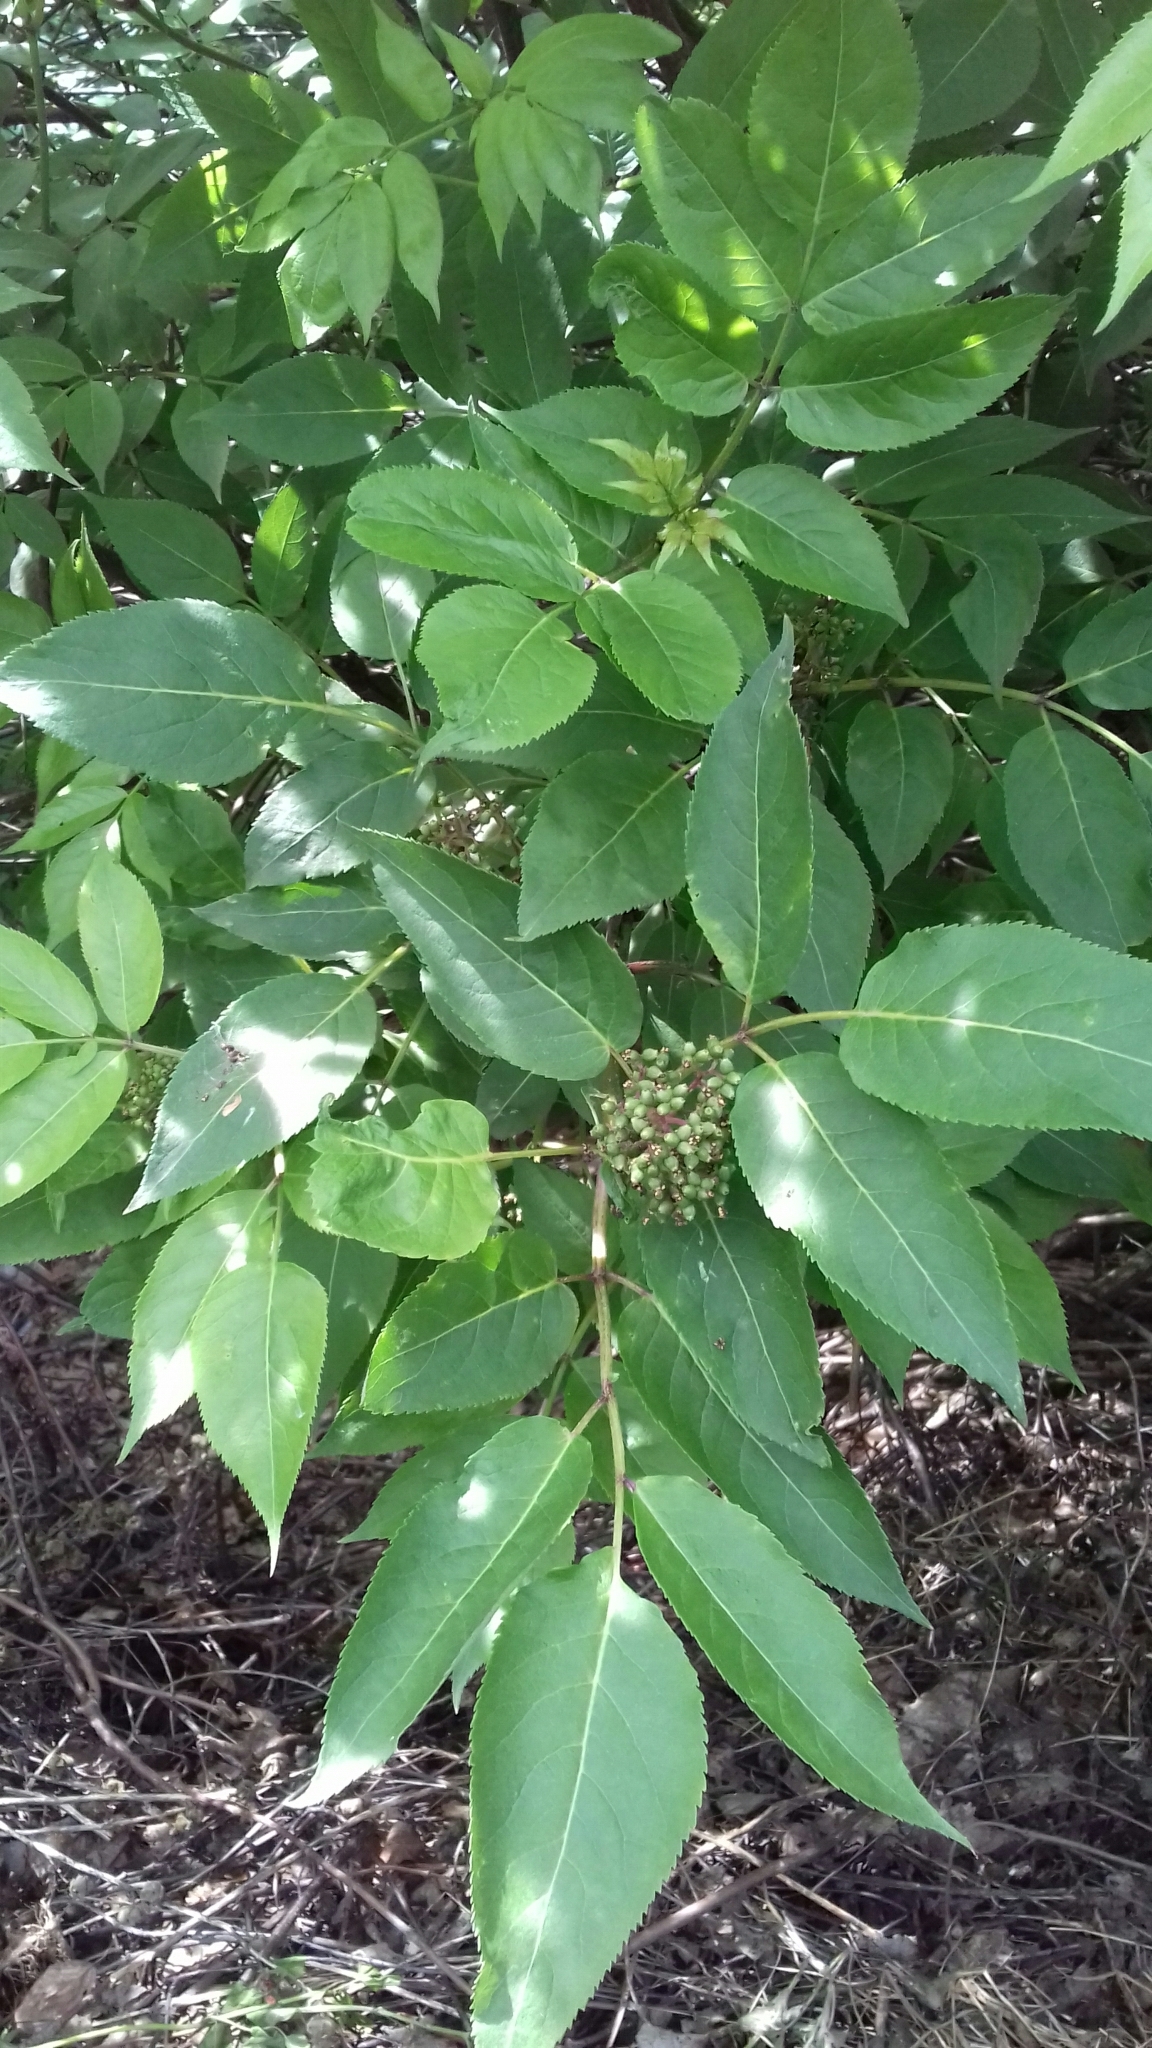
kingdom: Plantae
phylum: Tracheophyta
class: Magnoliopsida
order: Dipsacales
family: Viburnaceae
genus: Sambucus
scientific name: Sambucus racemosa
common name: Red-berried elder
